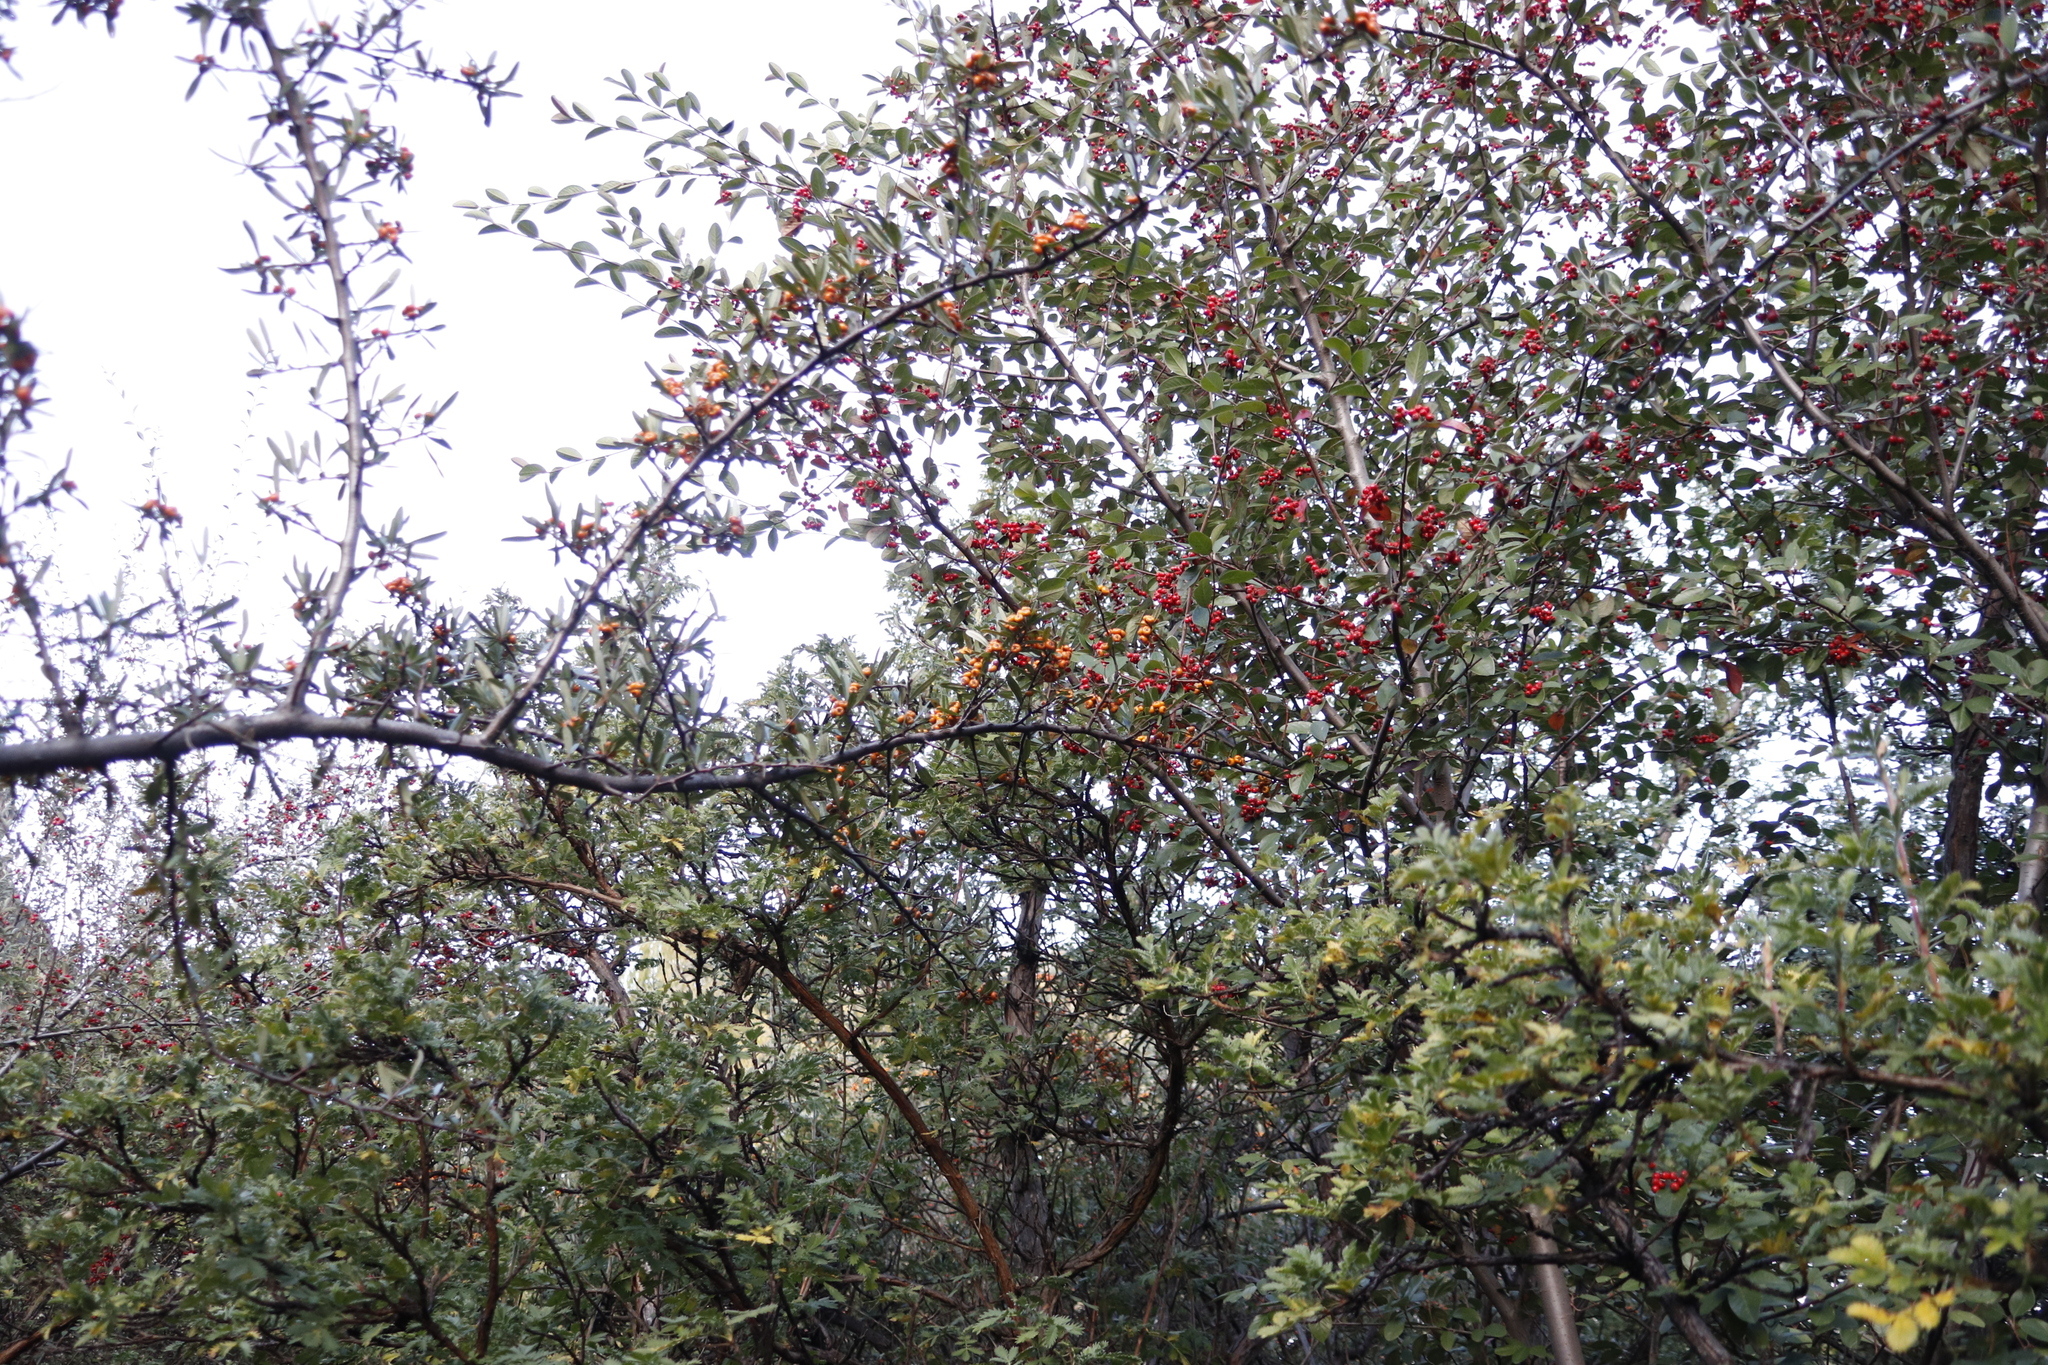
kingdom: Plantae
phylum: Tracheophyta
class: Magnoliopsida
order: Rosales
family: Rosaceae
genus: Pyracantha
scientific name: Pyracantha angustifolia
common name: Narrowleaf firethorn
